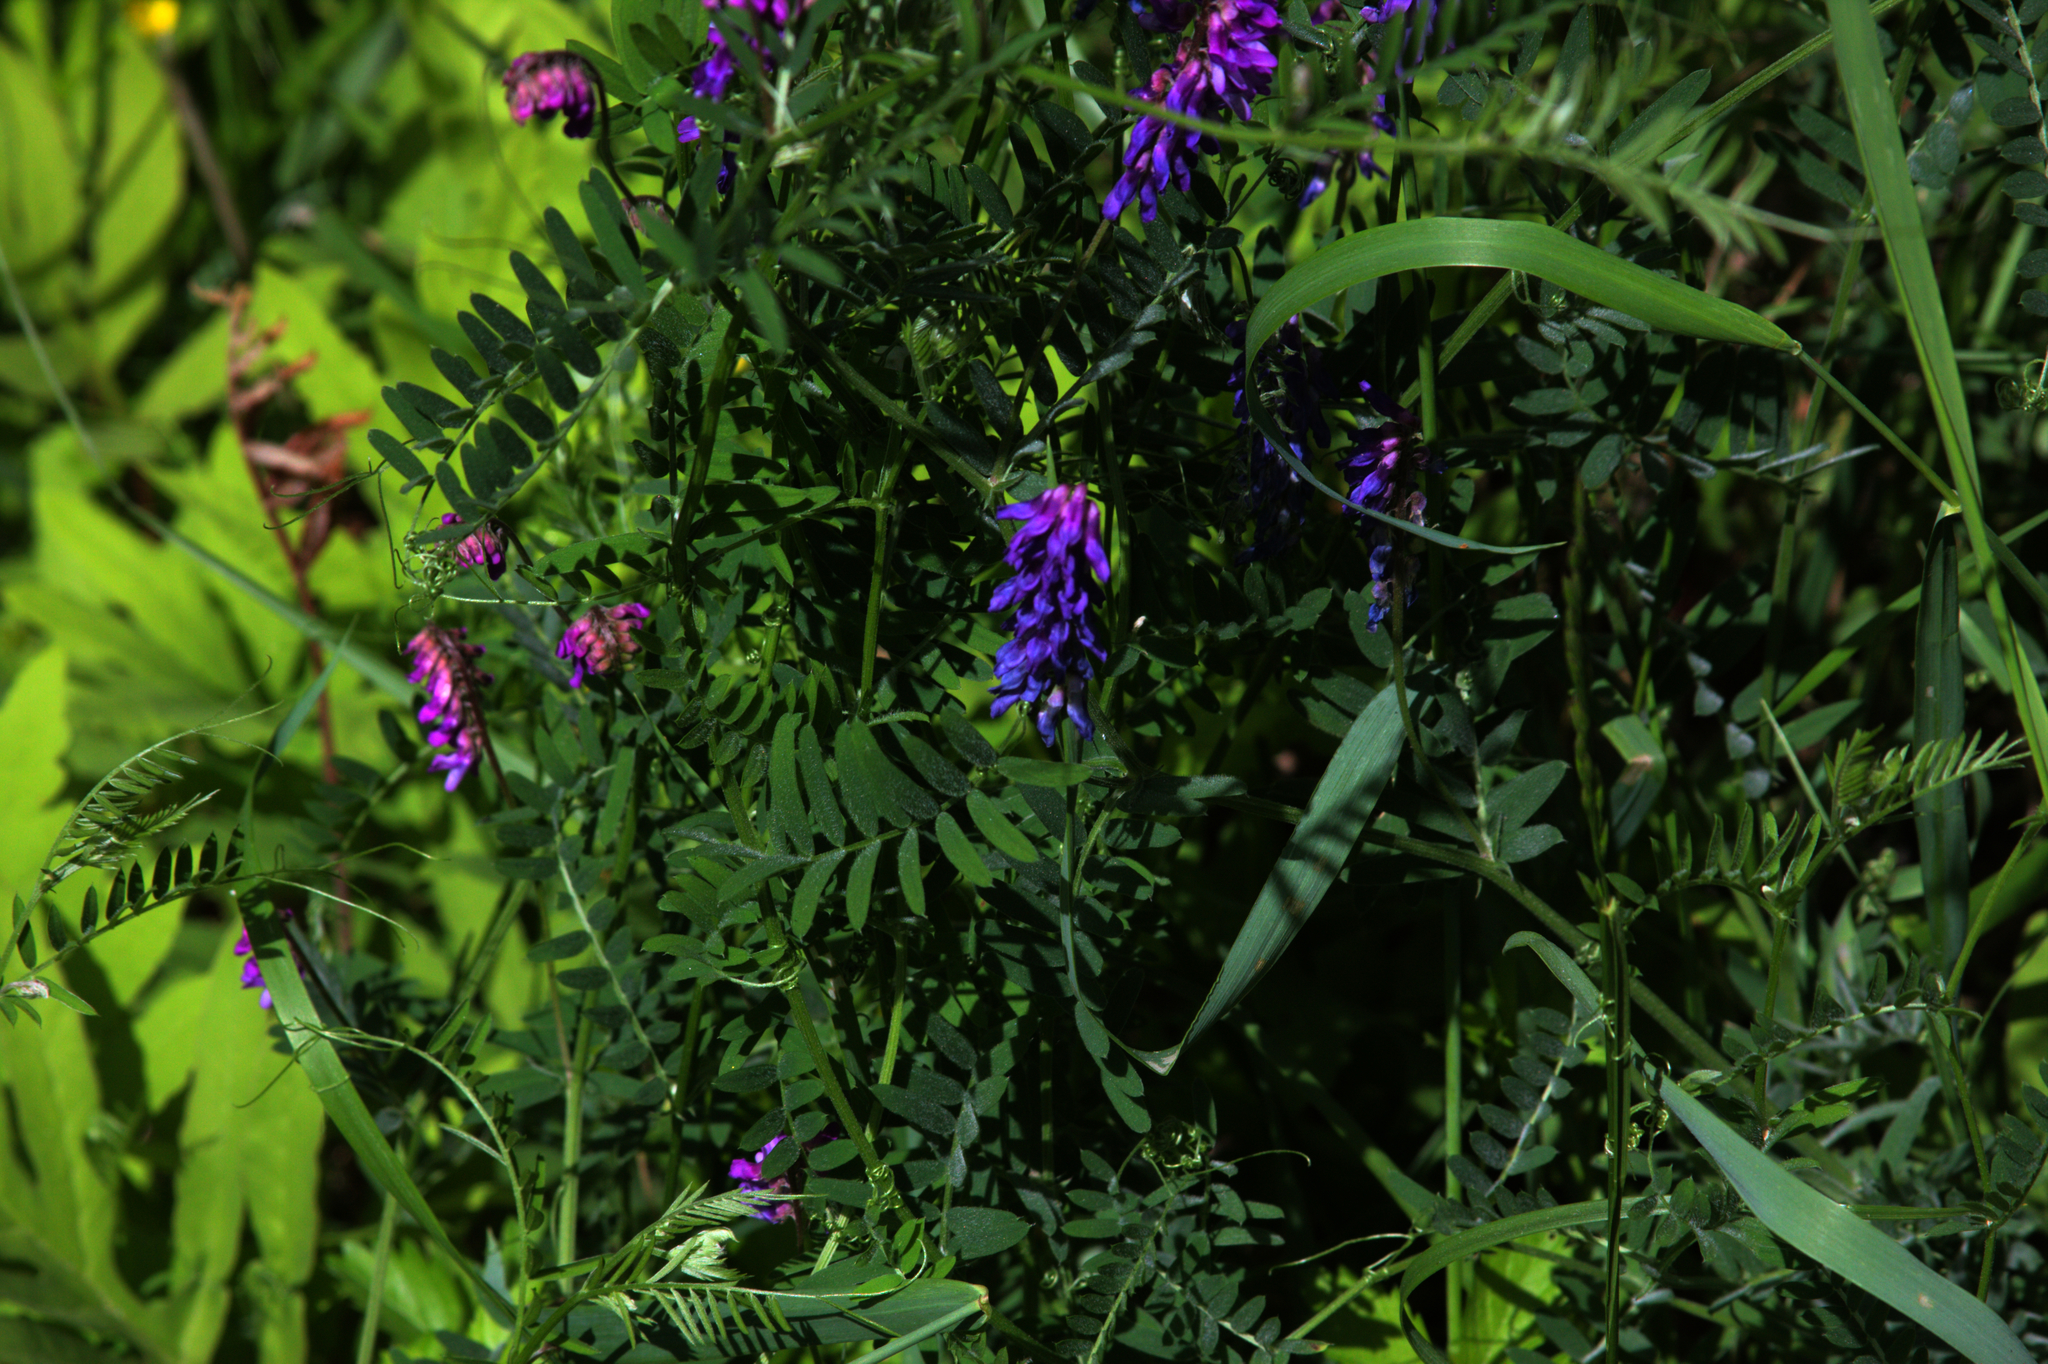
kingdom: Plantae
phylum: Tracheophyta
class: Magnoliopsida
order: Fabales
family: Fabaceae
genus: Vicia
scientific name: Vicia cracca
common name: Bird vetch
